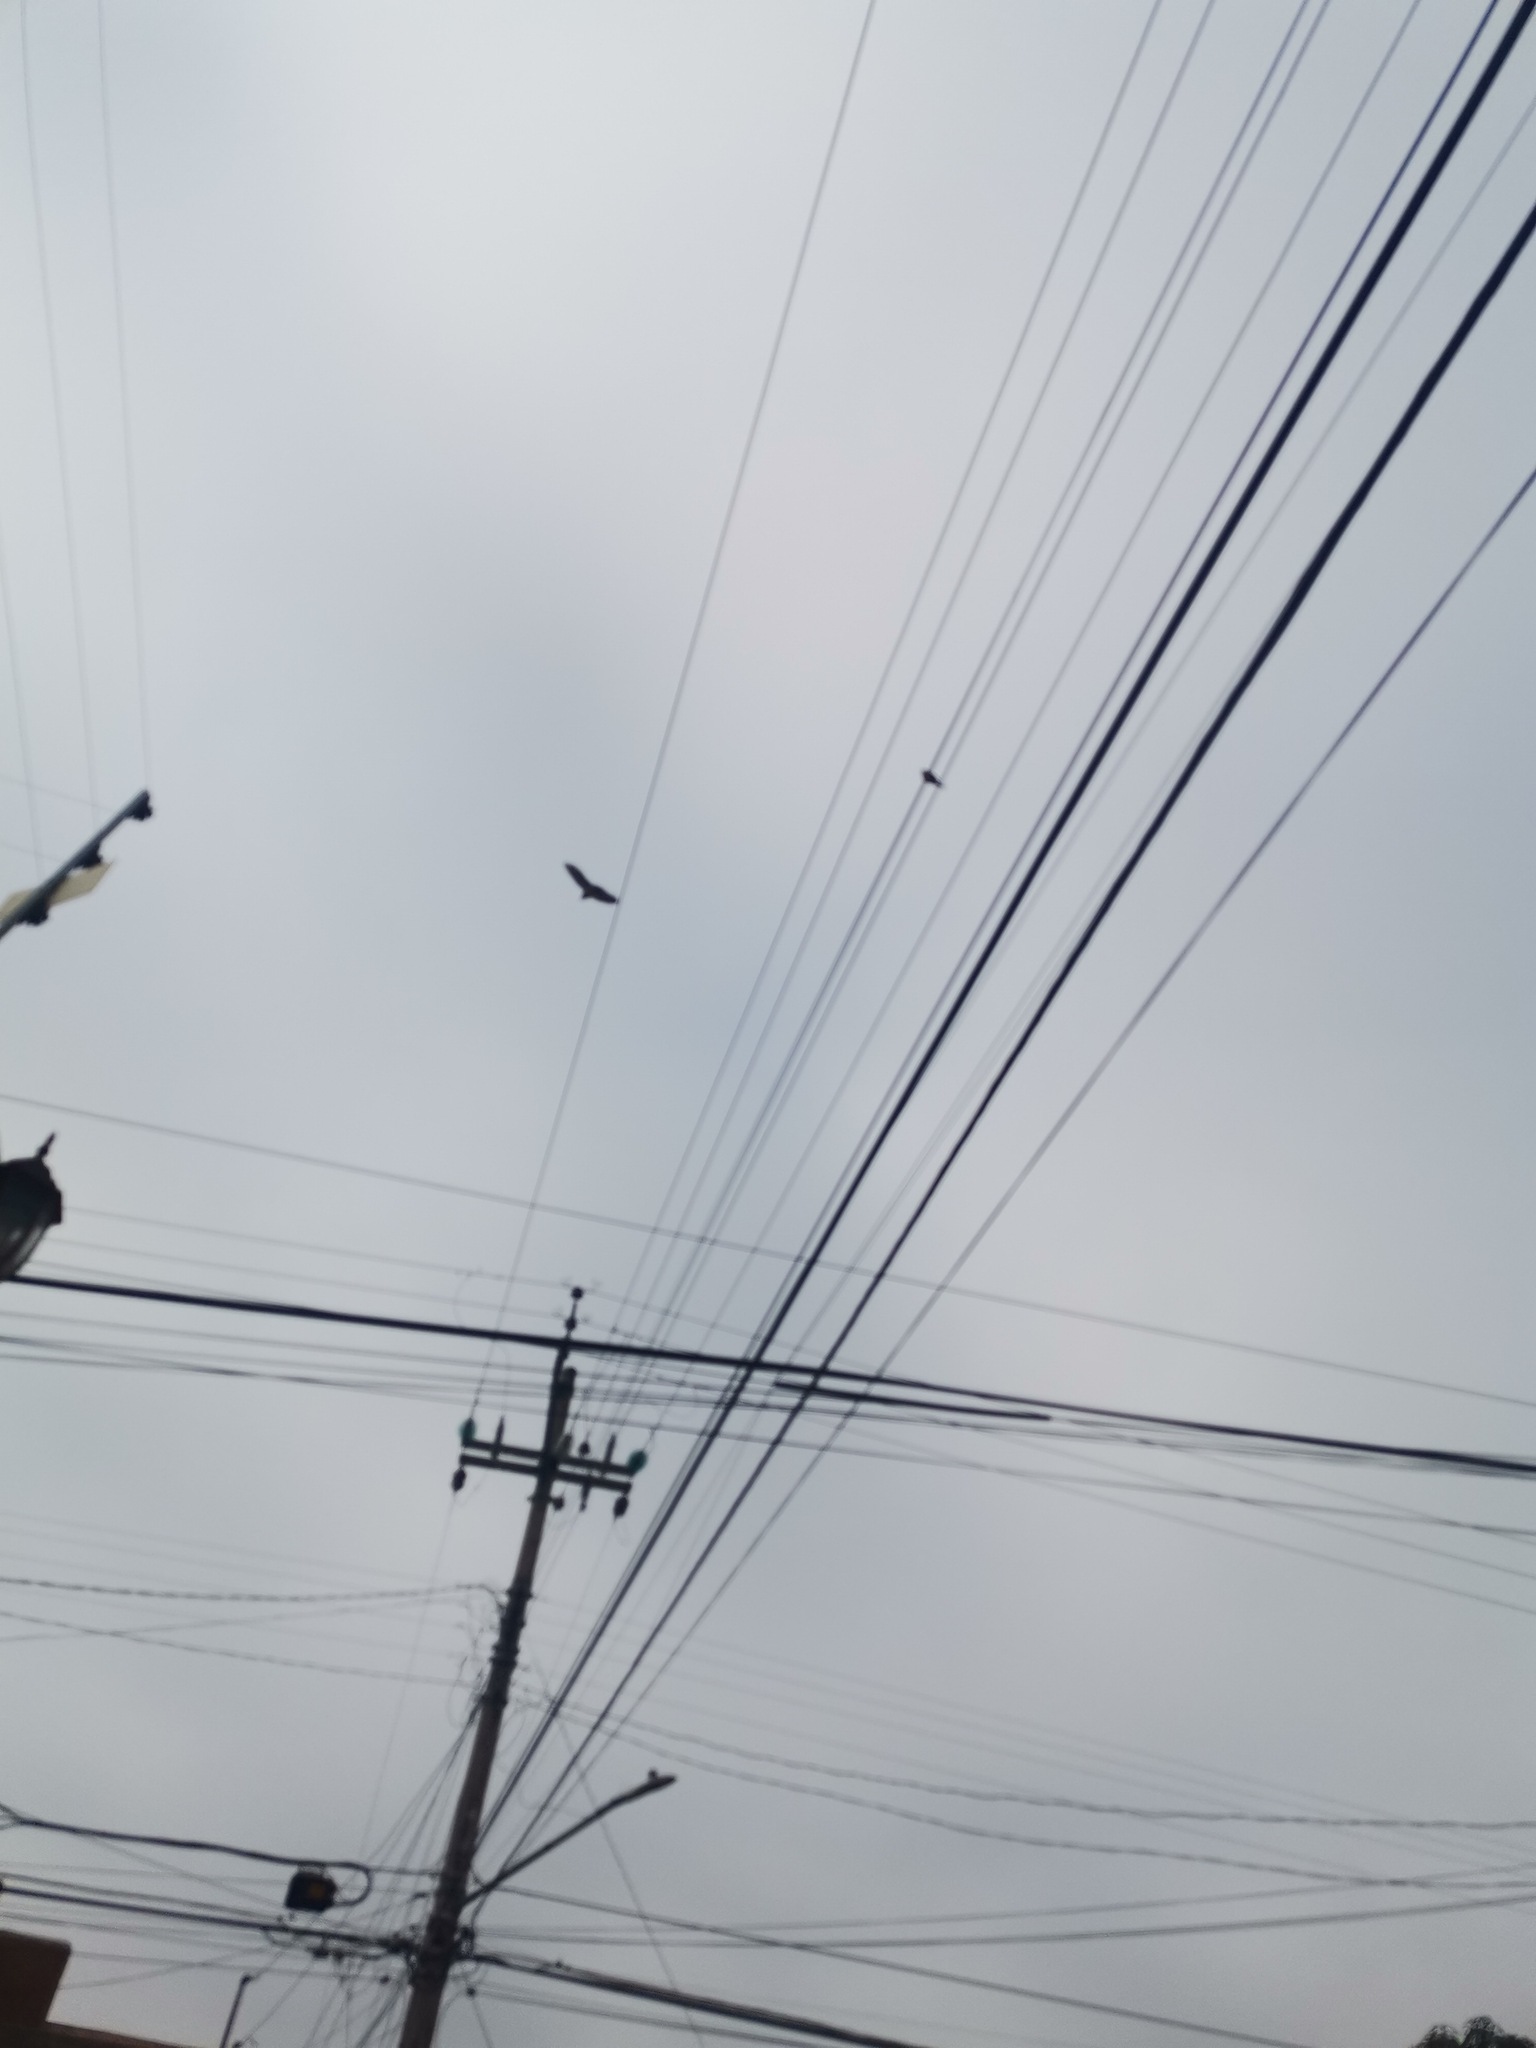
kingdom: Animalia
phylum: Chordata
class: Aves
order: Passeriformes
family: Hirundinidae
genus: Hirundo
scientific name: Hirundo rustica
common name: Barn swallow
